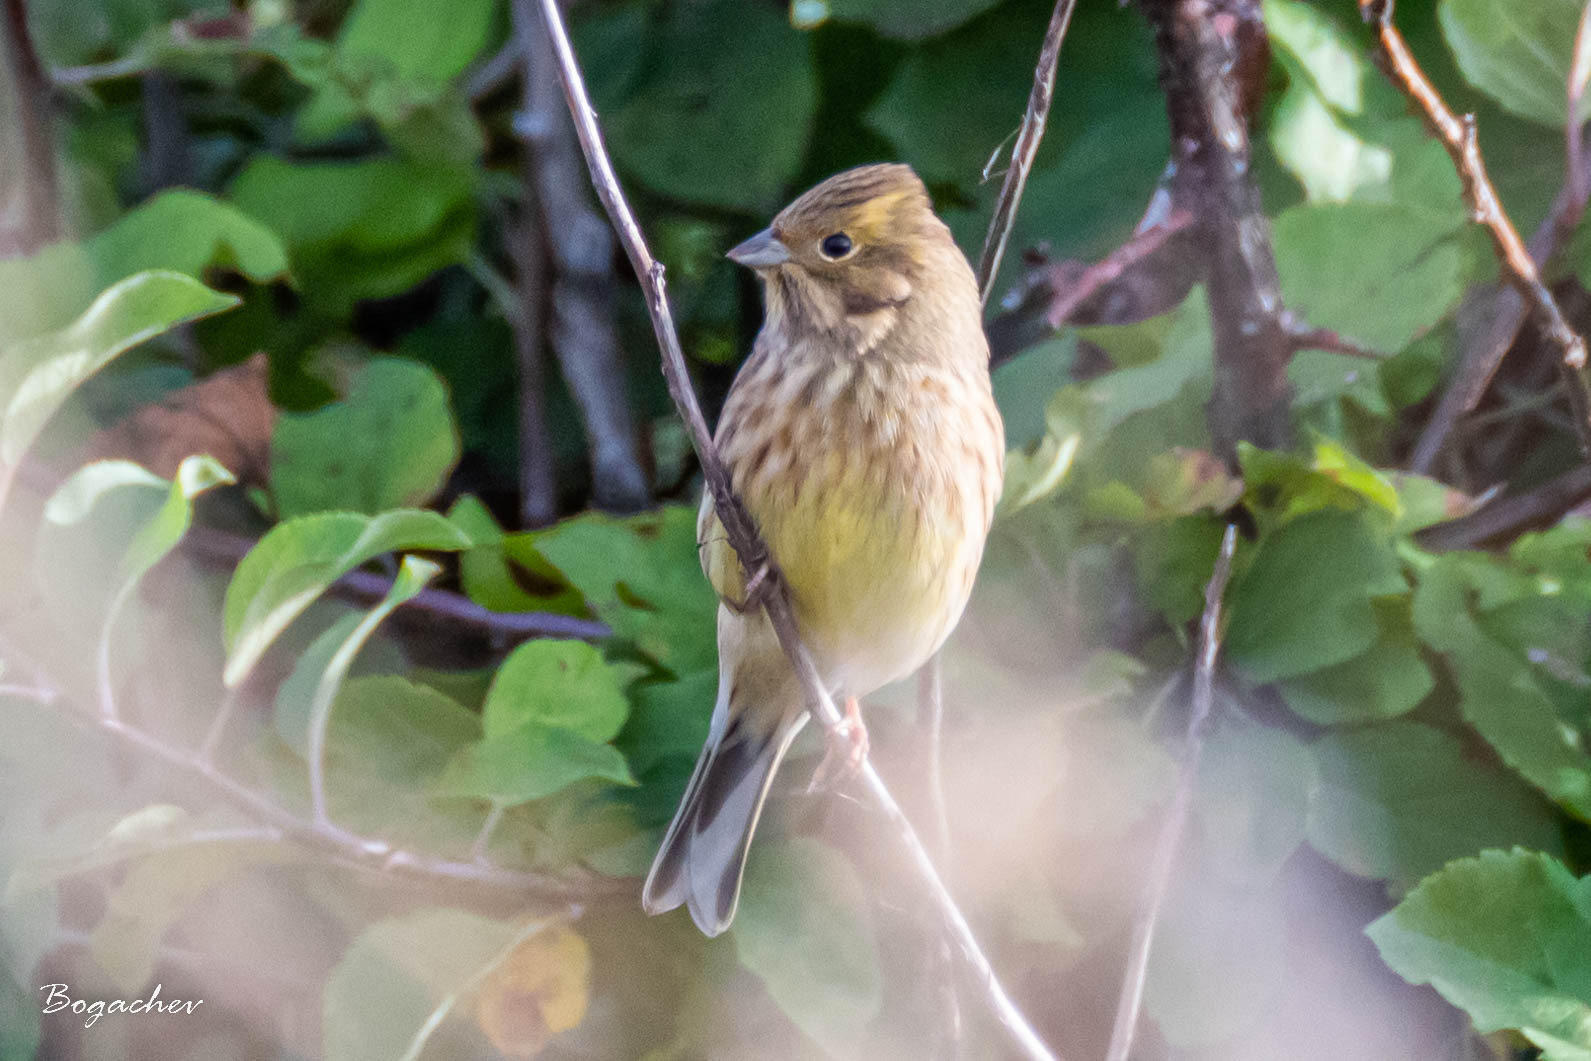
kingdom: Animalia
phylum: Chordata
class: Aves
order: Passeriformes
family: Emberizidae
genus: Emberiza
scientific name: Emberiza citrinella
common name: Yellowhammer
